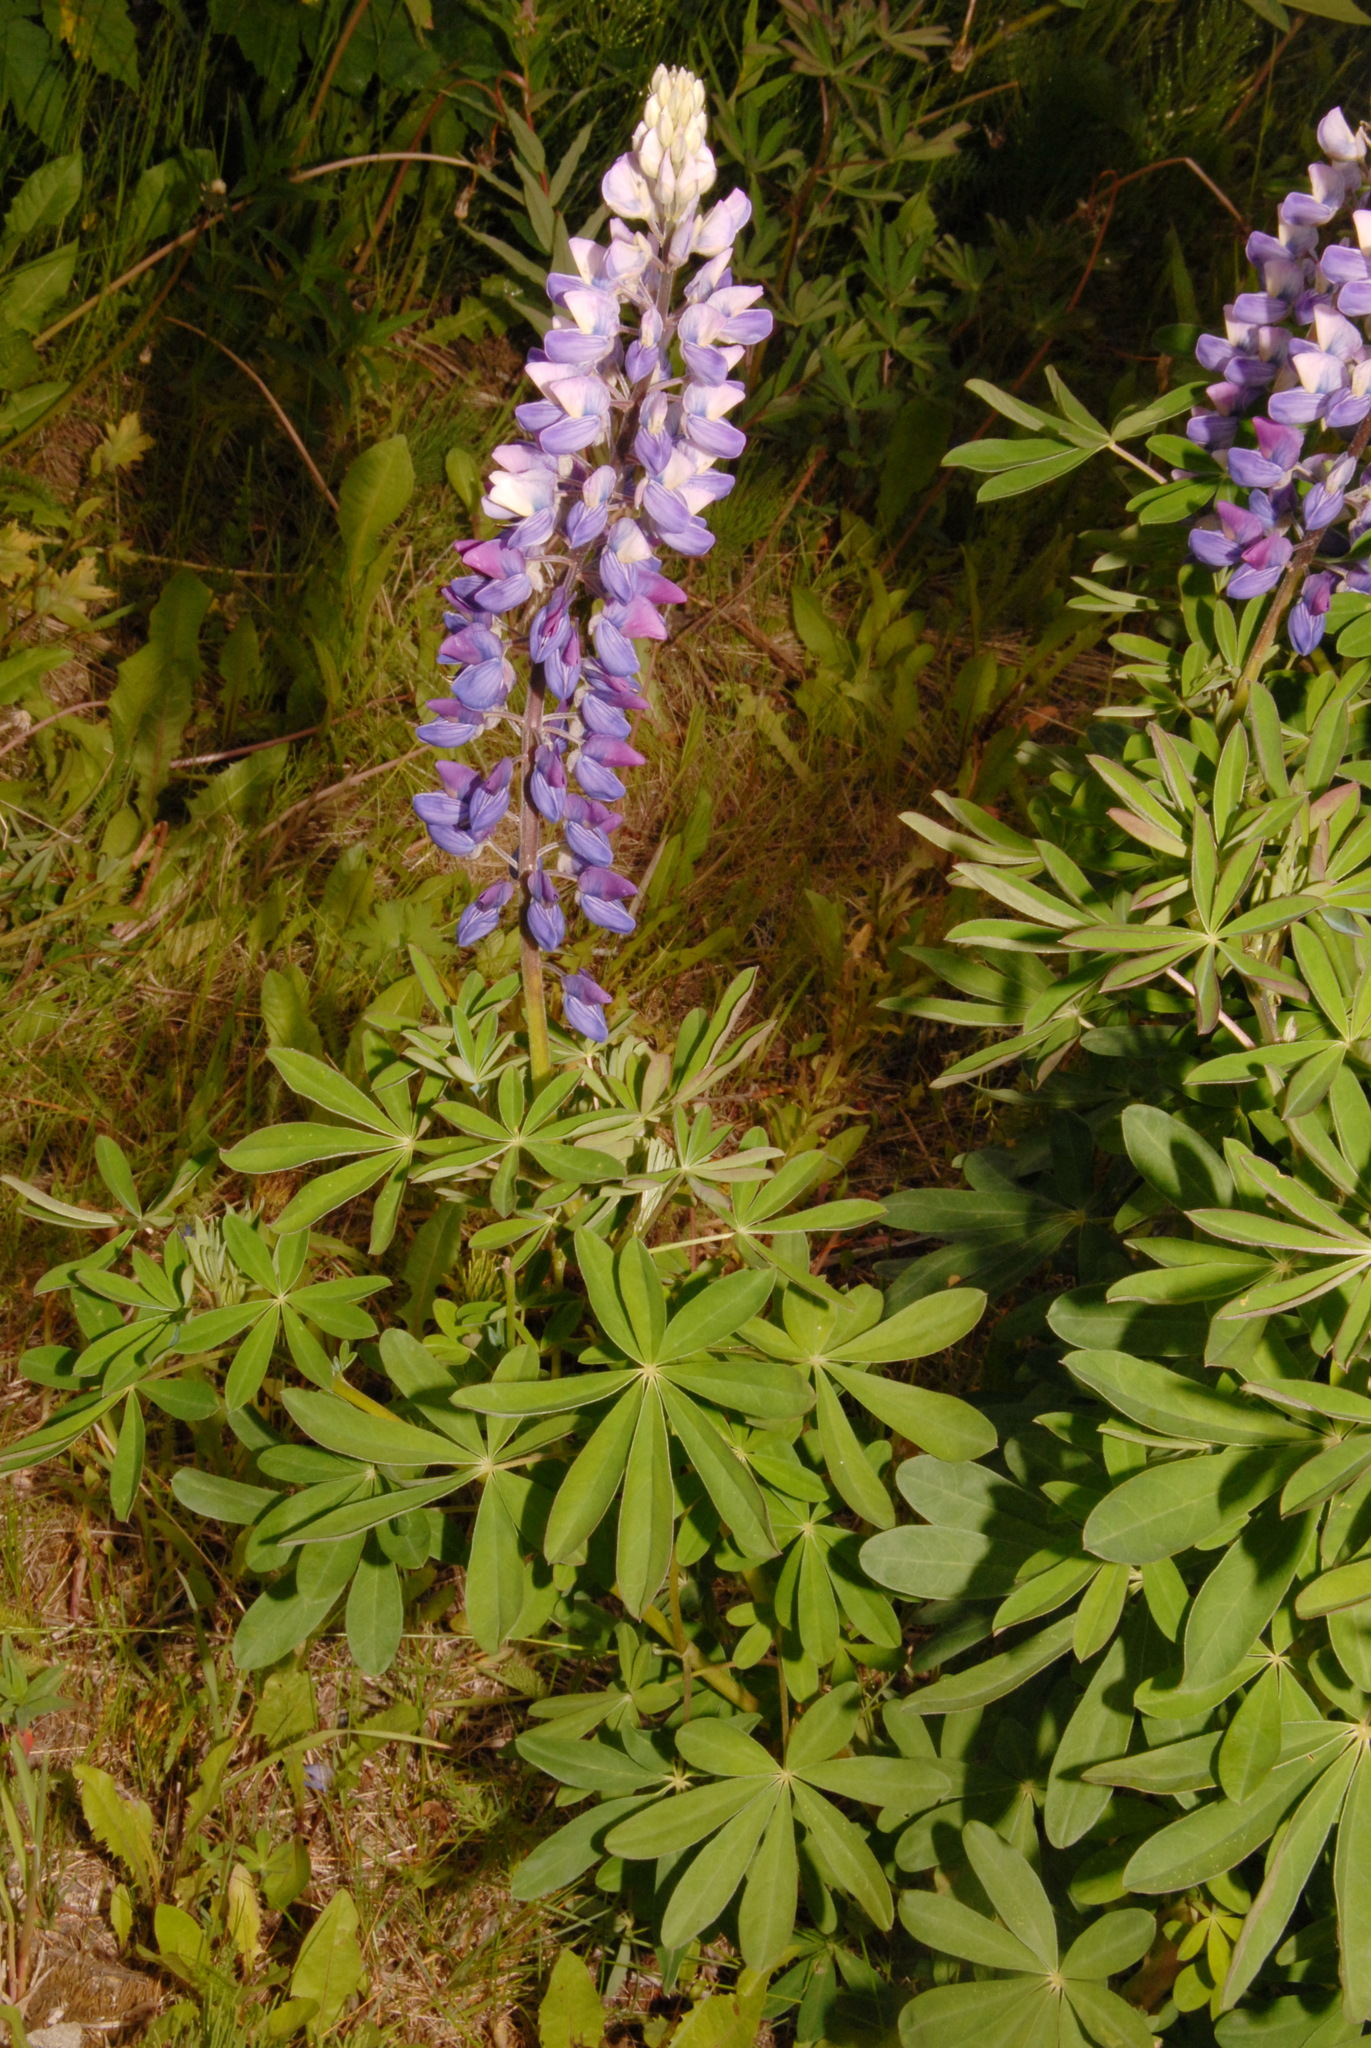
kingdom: Plantae
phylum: Tracheophyta
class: Magnoliopsida
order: Fabales
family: Fabaceae
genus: Lupinus
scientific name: Lupinus nootkatensis
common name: Nootka lupine
